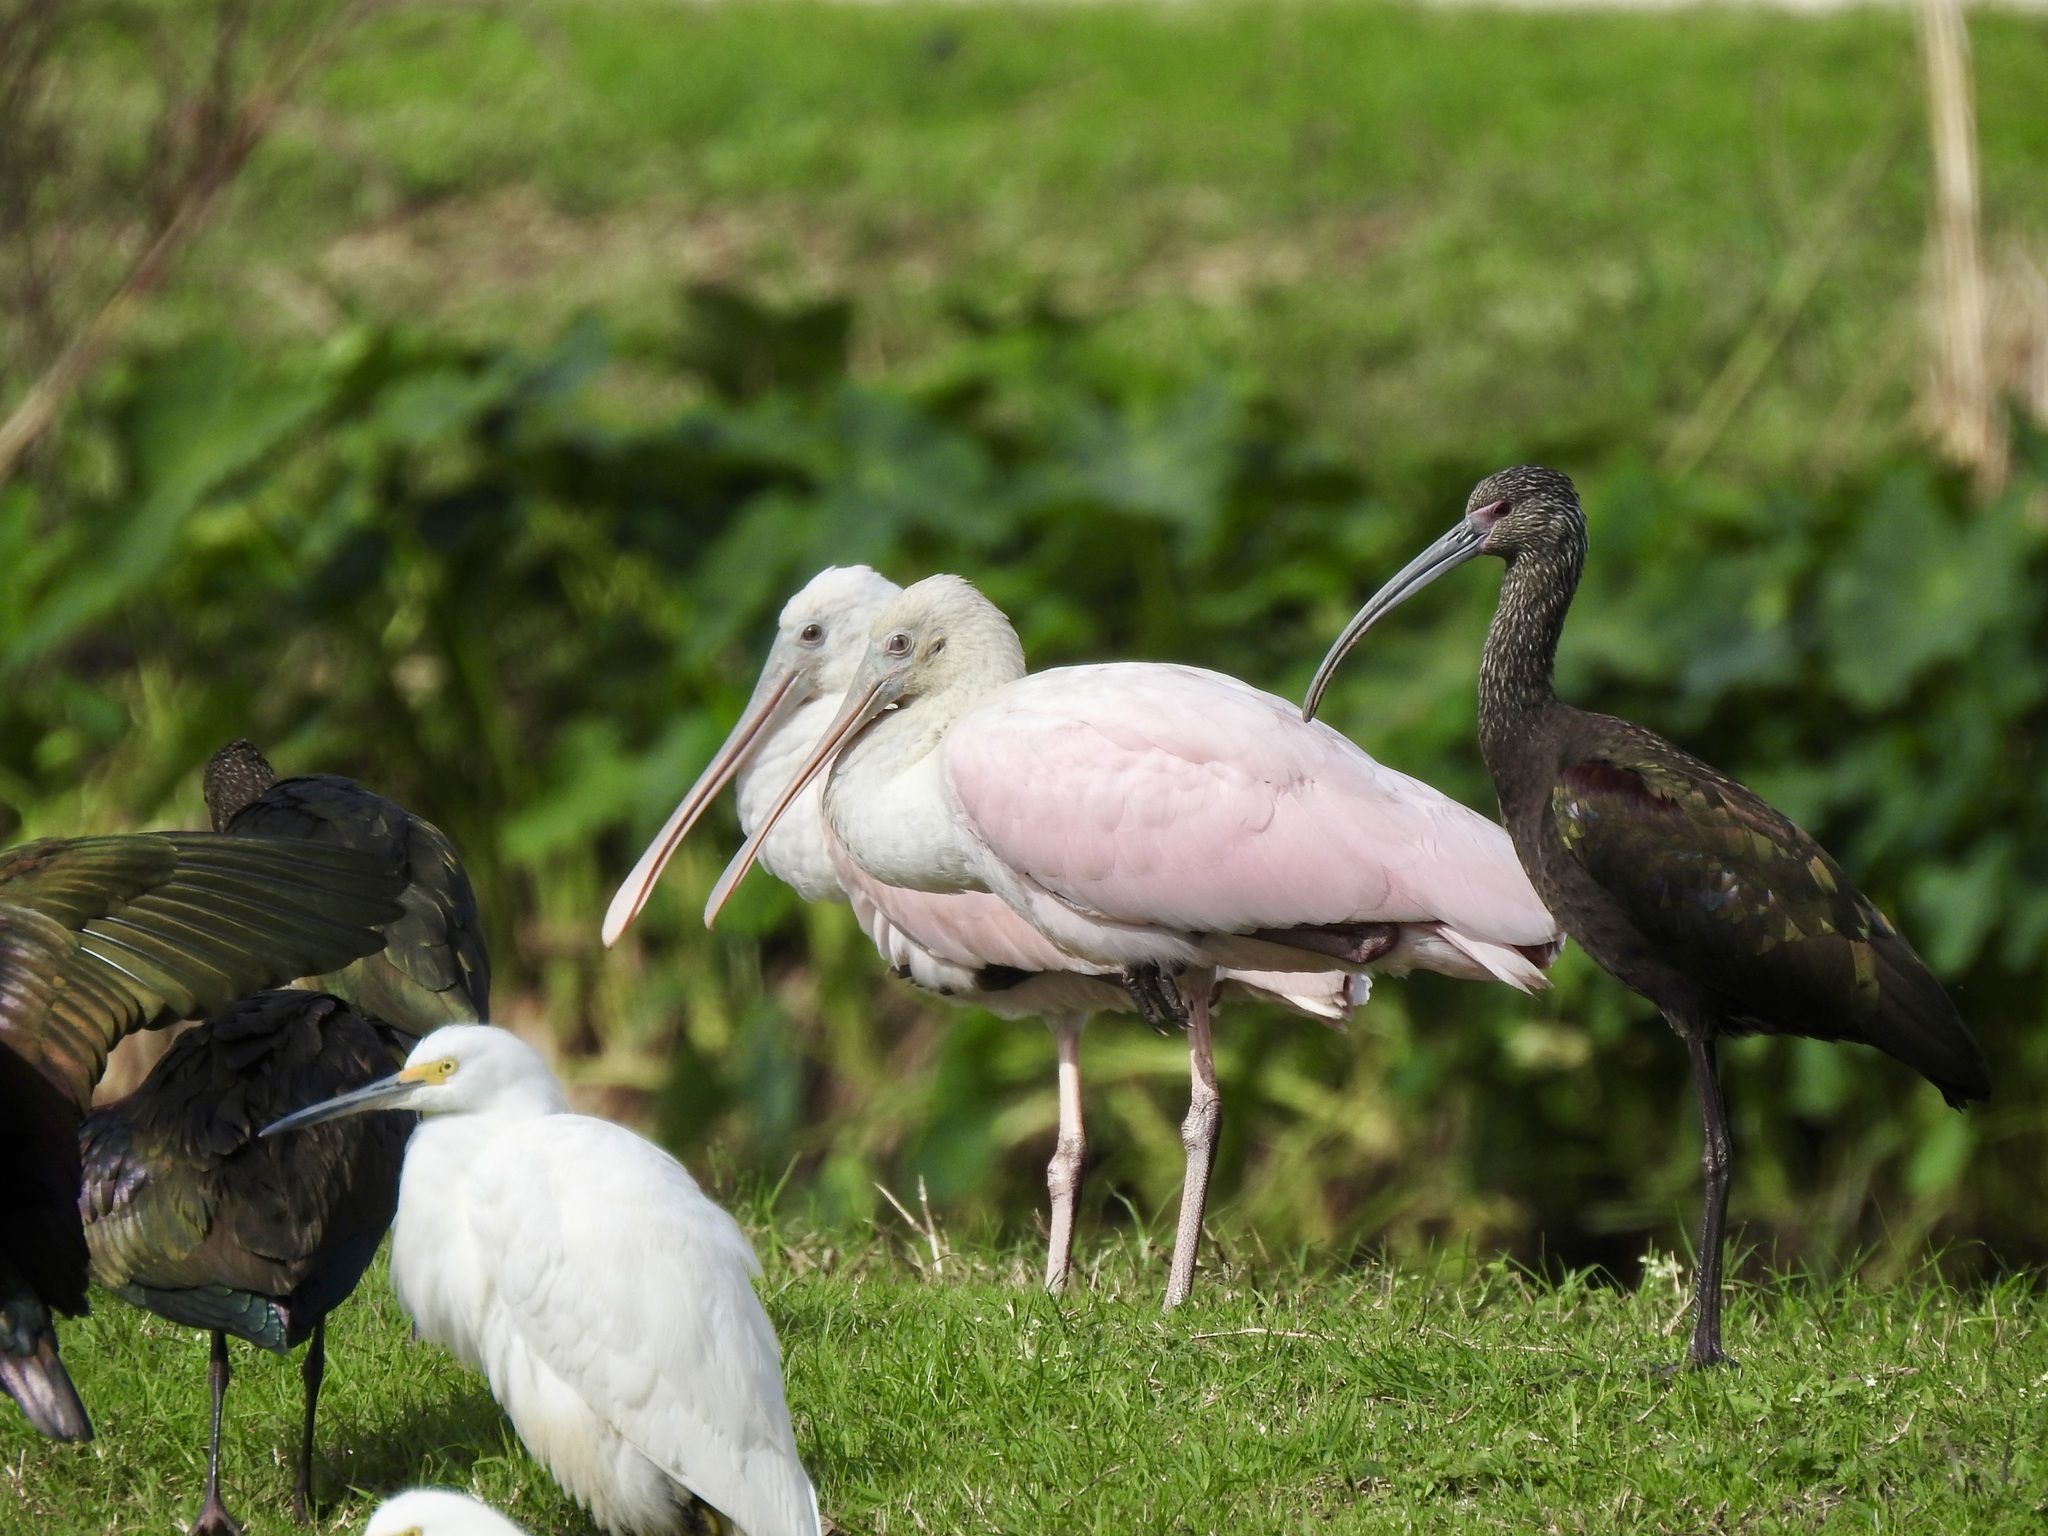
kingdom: Animalia
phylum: Chordata
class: Aves
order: Pelecaniformes
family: Threskiornithidae
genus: Platalea
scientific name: Platalea ajaja
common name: Roseate spoonbill
